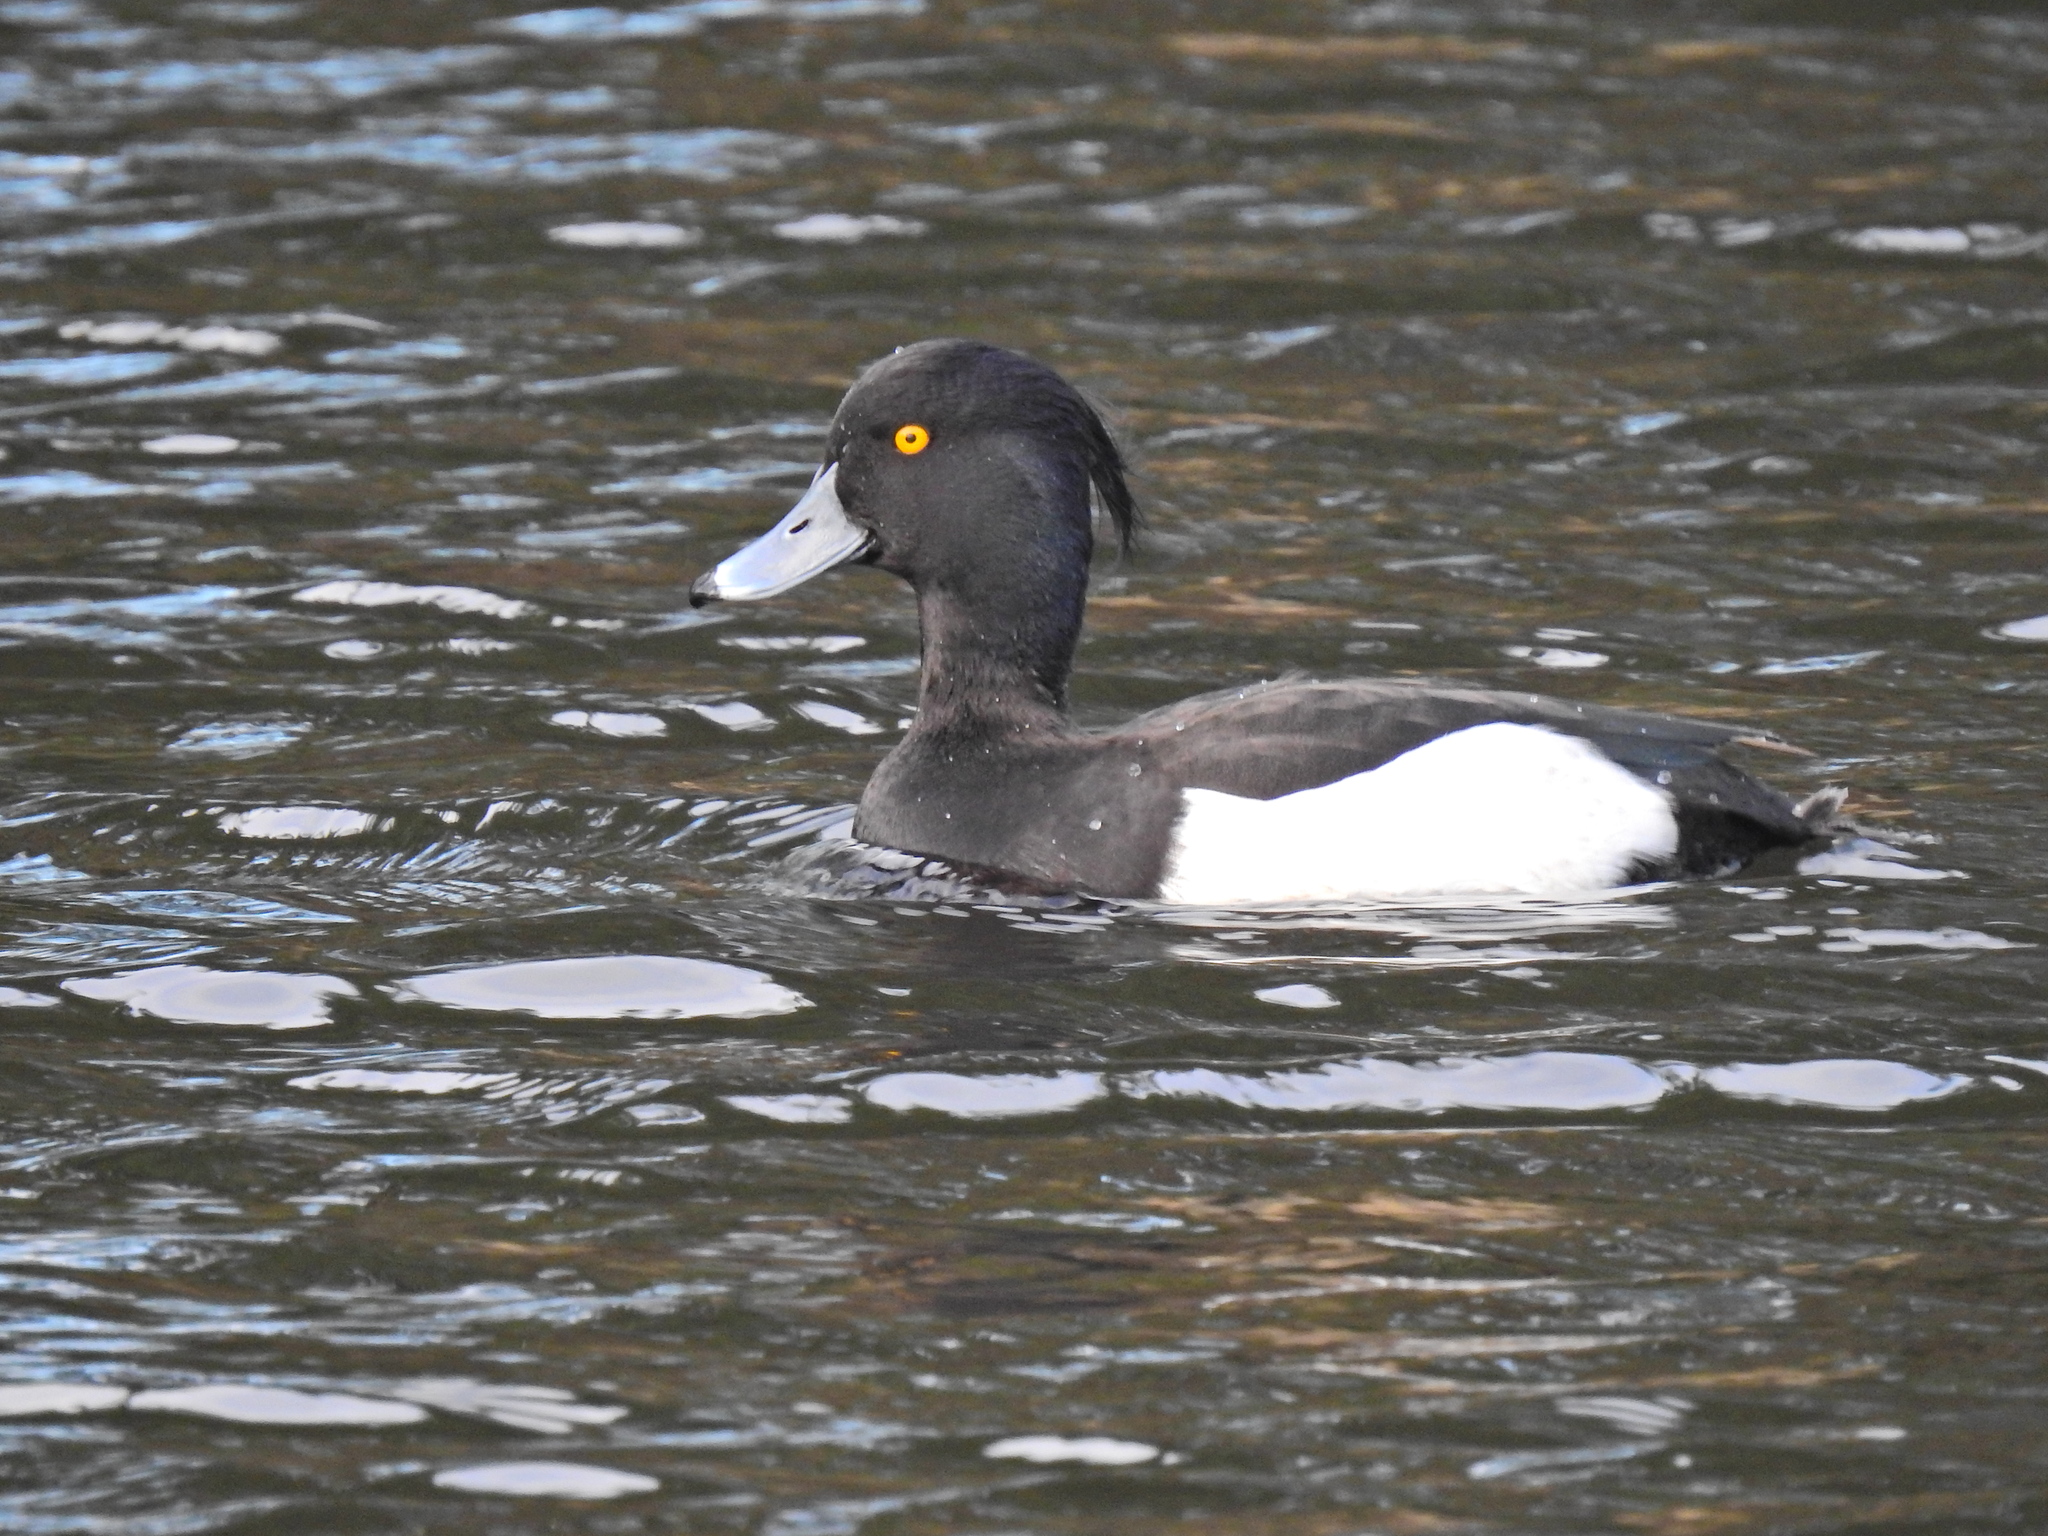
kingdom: Animalia
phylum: Chordata
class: Aves
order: Anseriformes
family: Anatidae
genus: Aythya
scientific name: Aythya fuligula
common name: Tufted duck
